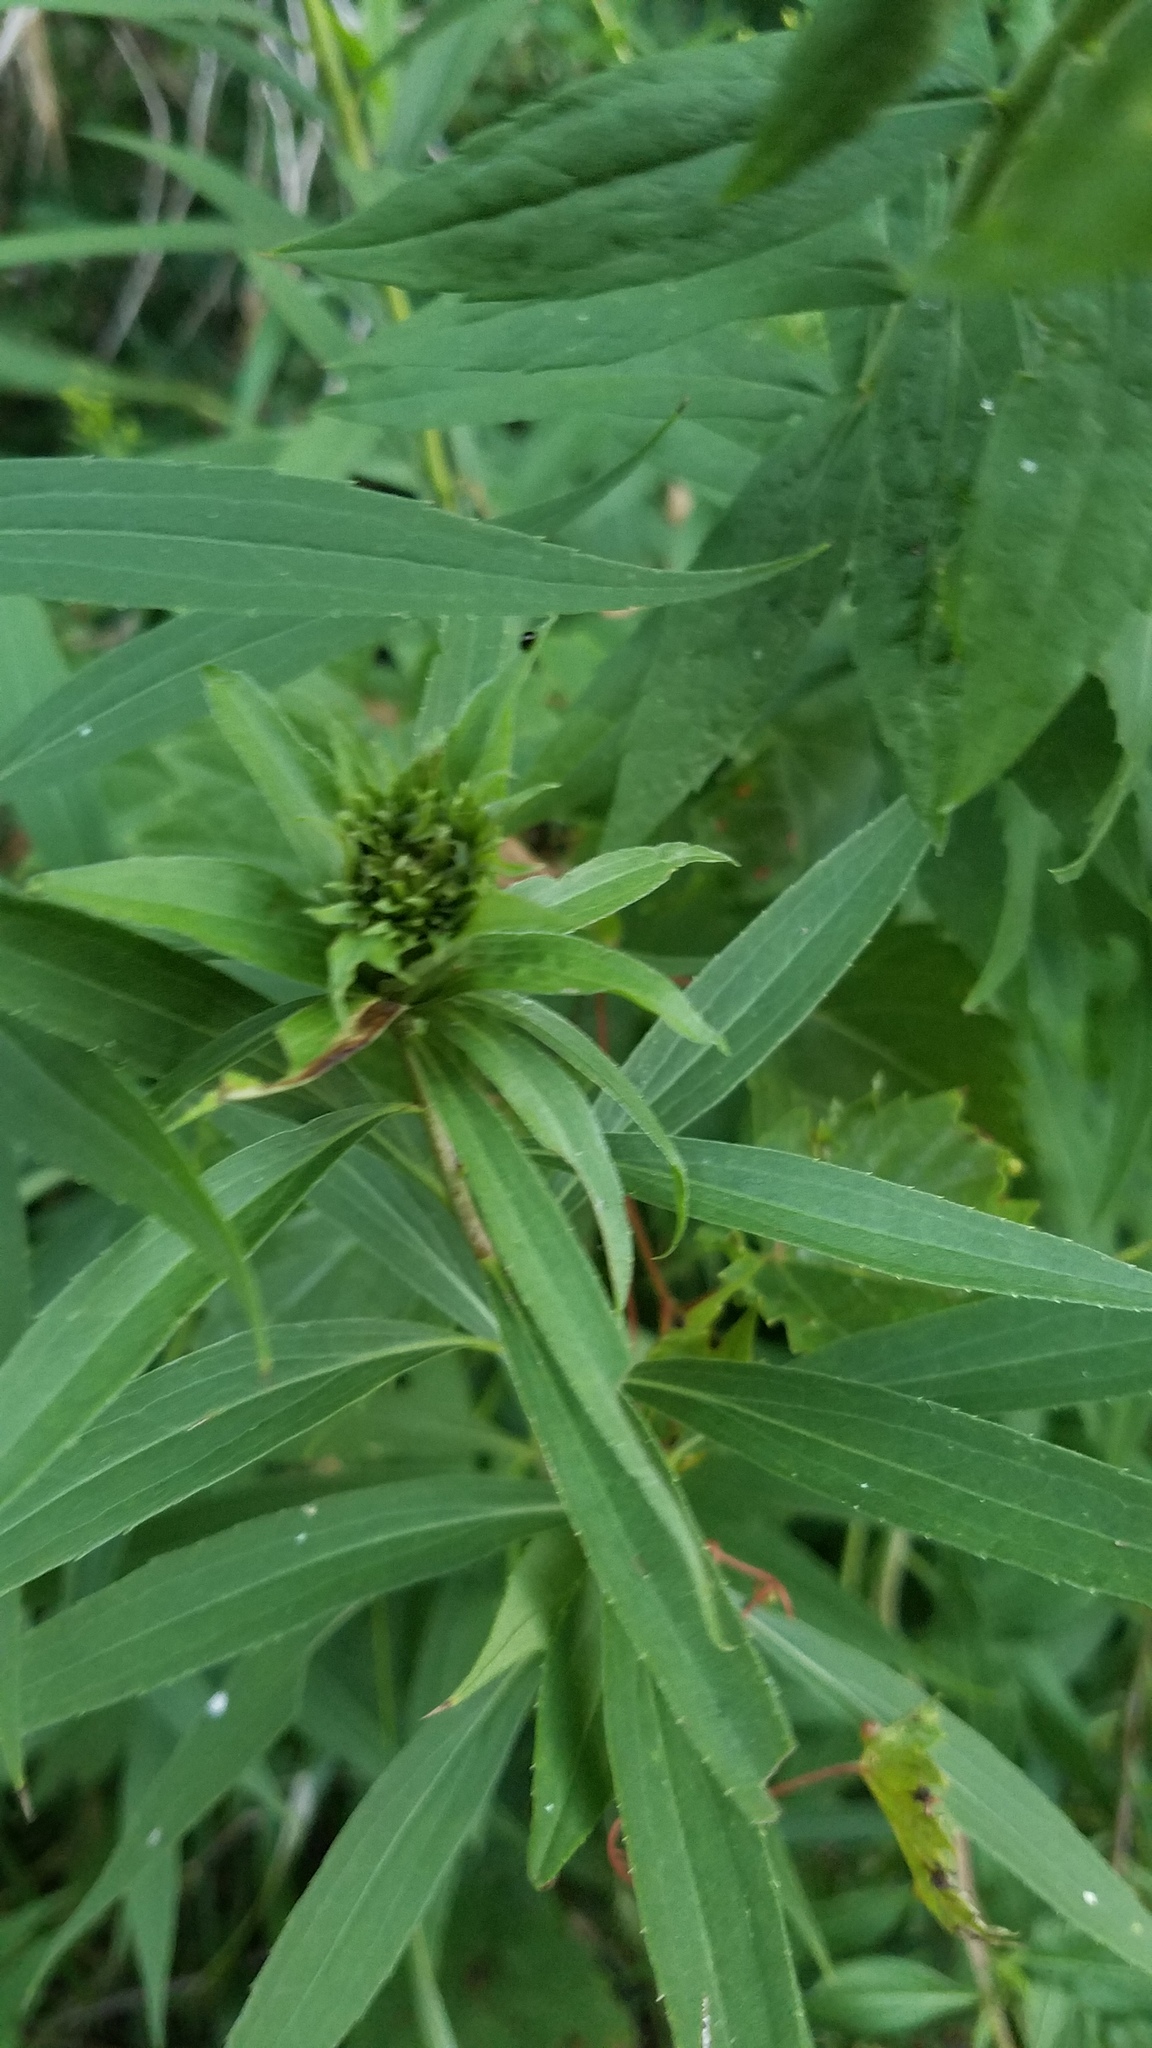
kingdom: Animalia
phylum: Arthropoda
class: Insecta
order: Diptera
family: Cecidomyiidae
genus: Rhopalomyia
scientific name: Rhopalomyia capitata
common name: Giant goldenrod bunch gall midge
